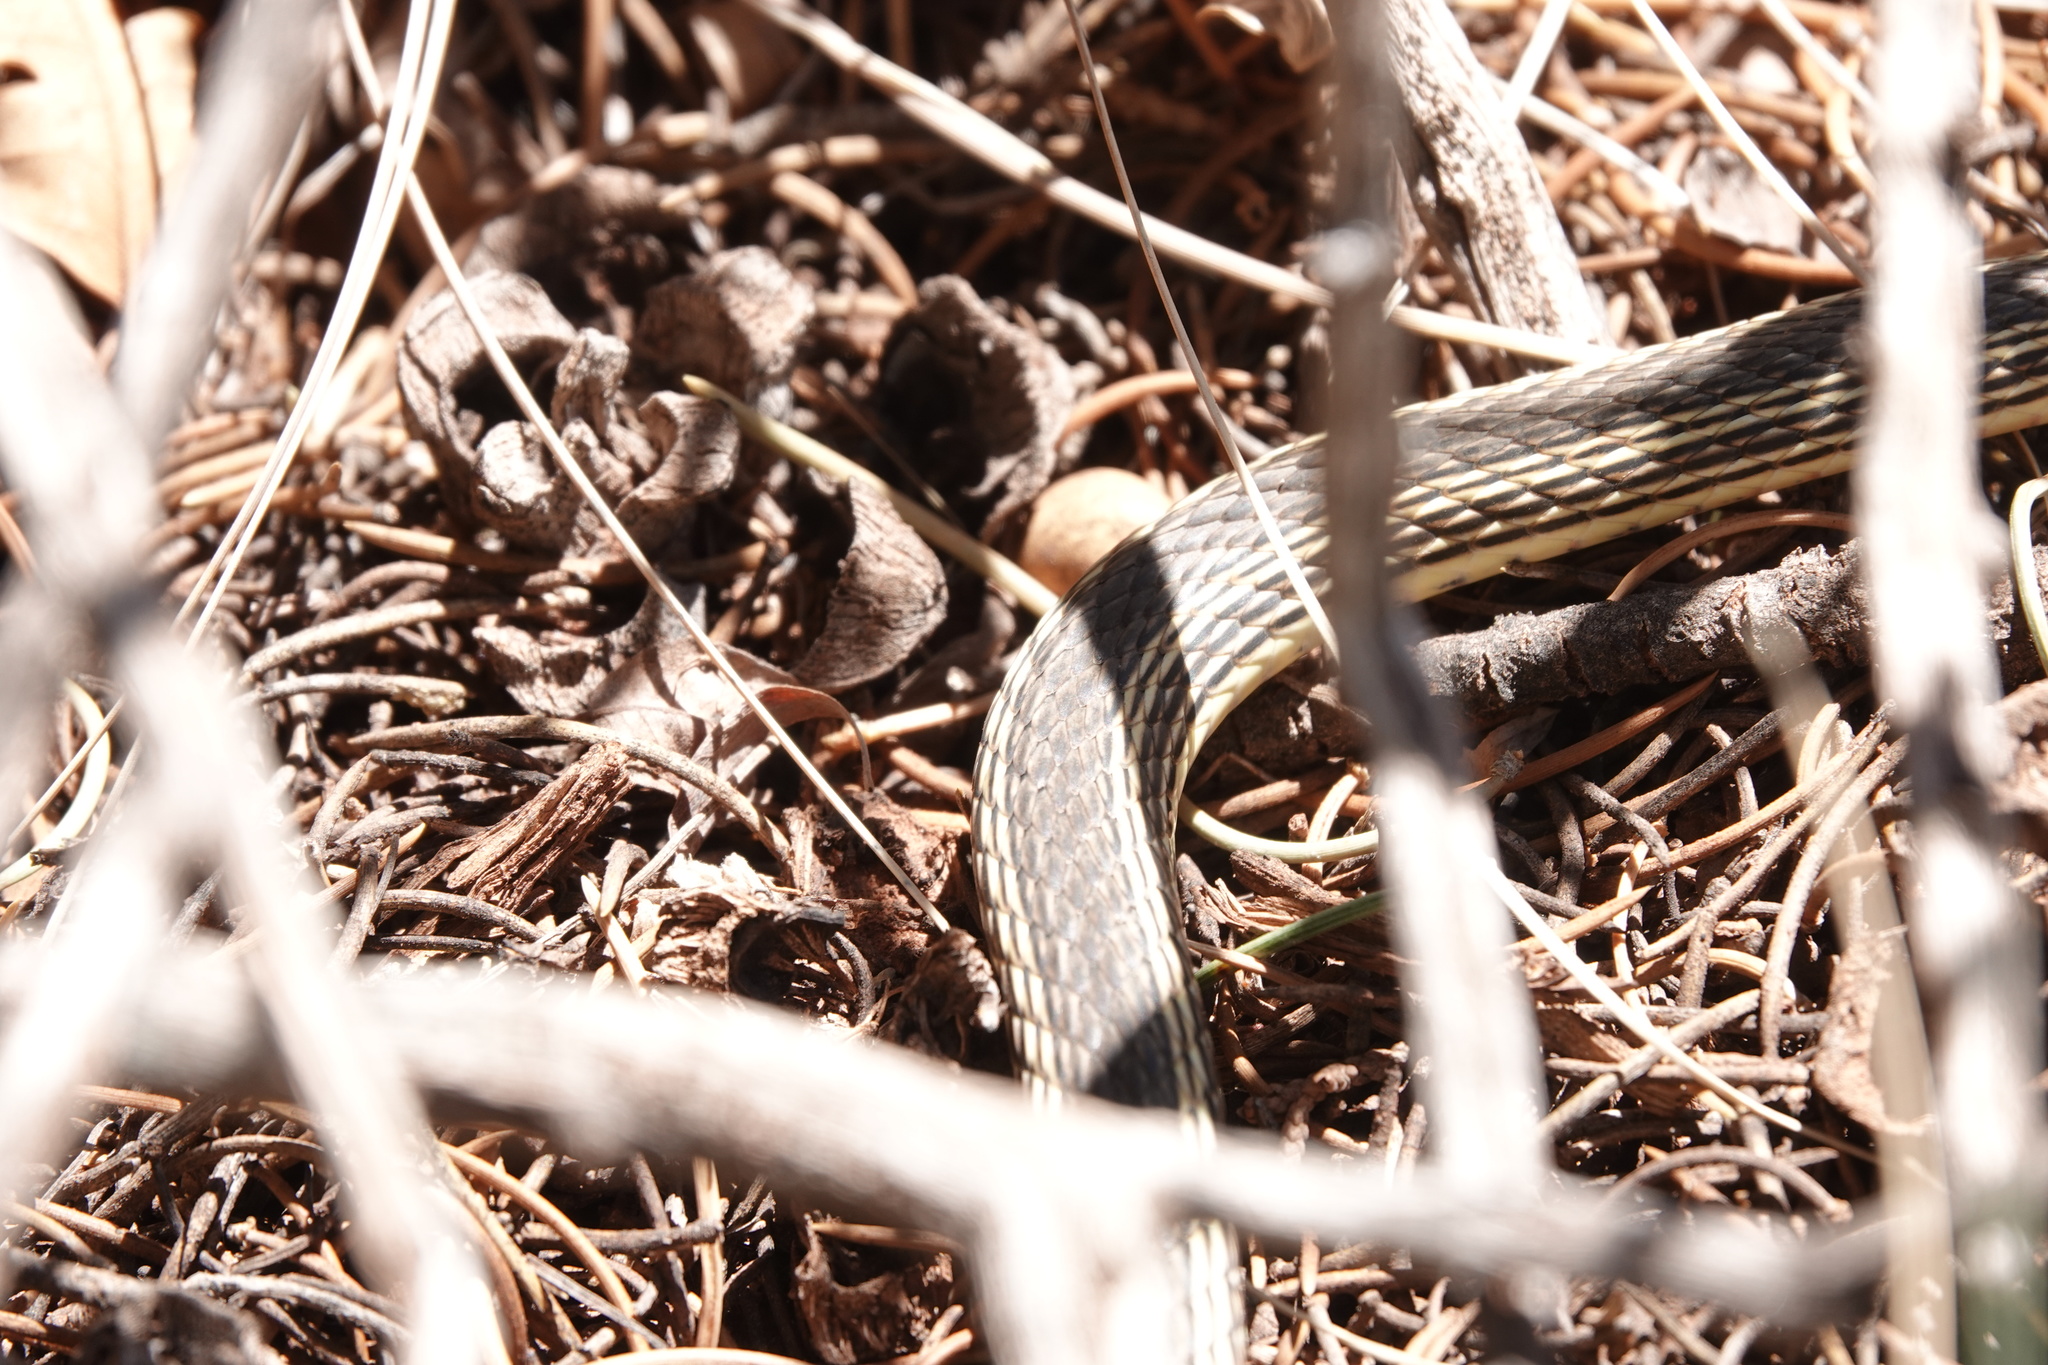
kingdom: Animalia
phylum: Chordata
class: Squamata
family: Colubridae
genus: Masticophis
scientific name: Masticophis taeniatus
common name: Striped whipsnake
